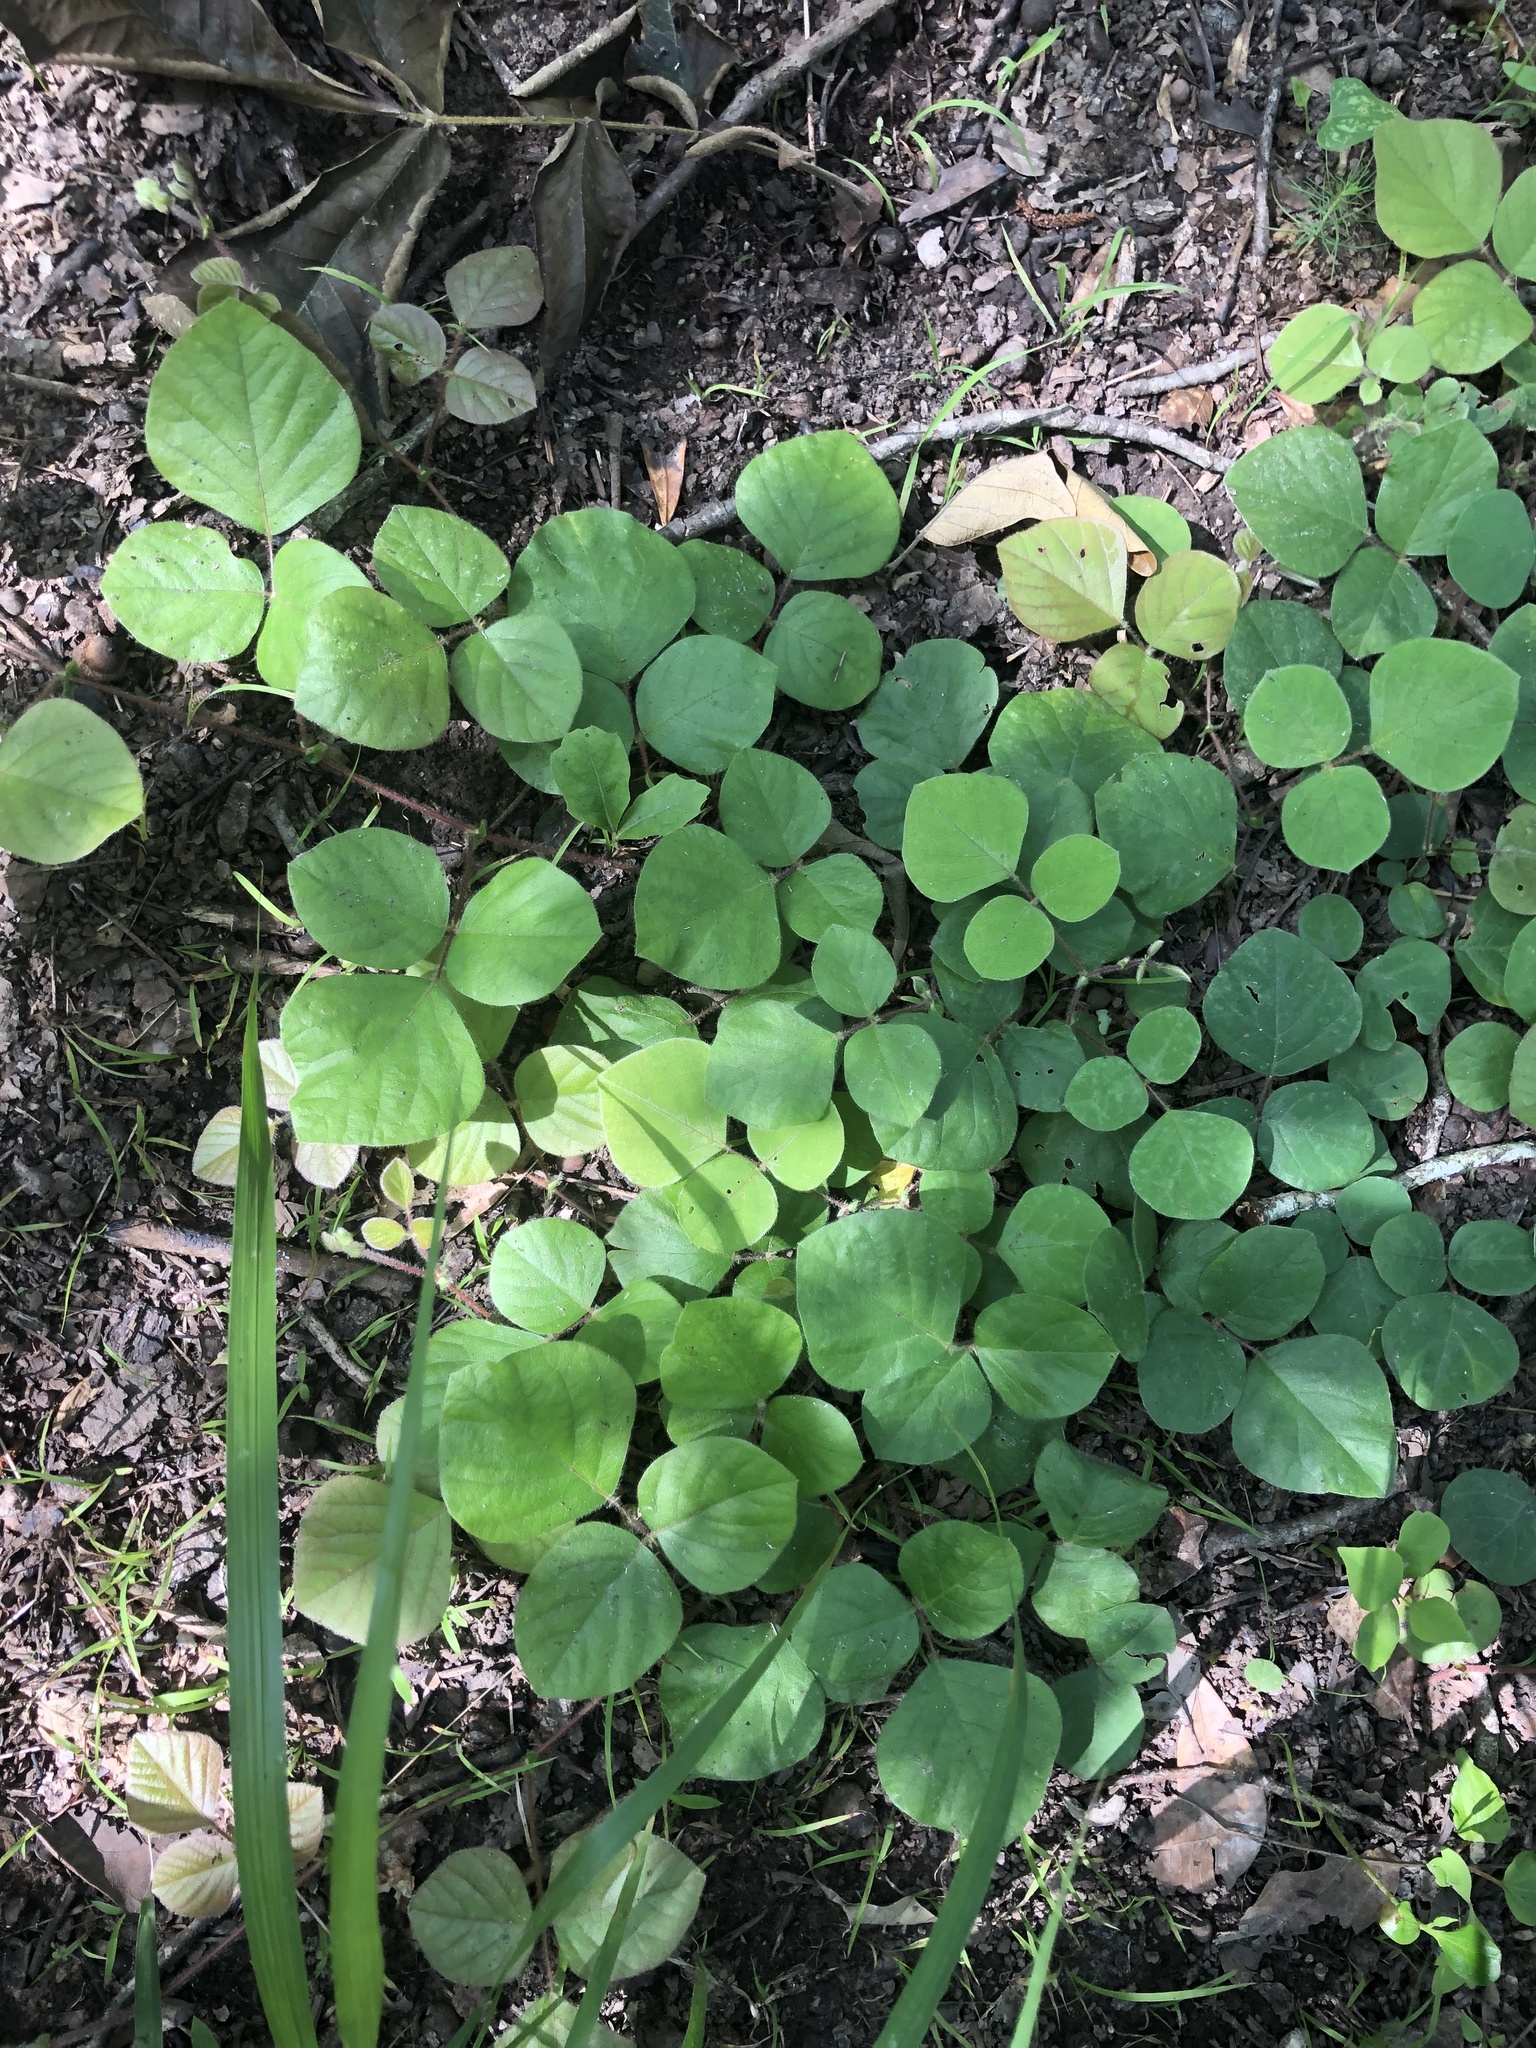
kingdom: Plantae
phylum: Tracheophyta
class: Magnoliopsida
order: Fabales
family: Fabaceae
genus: Desmodium
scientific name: Desmodium rotundifolium
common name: Dollarleaf
